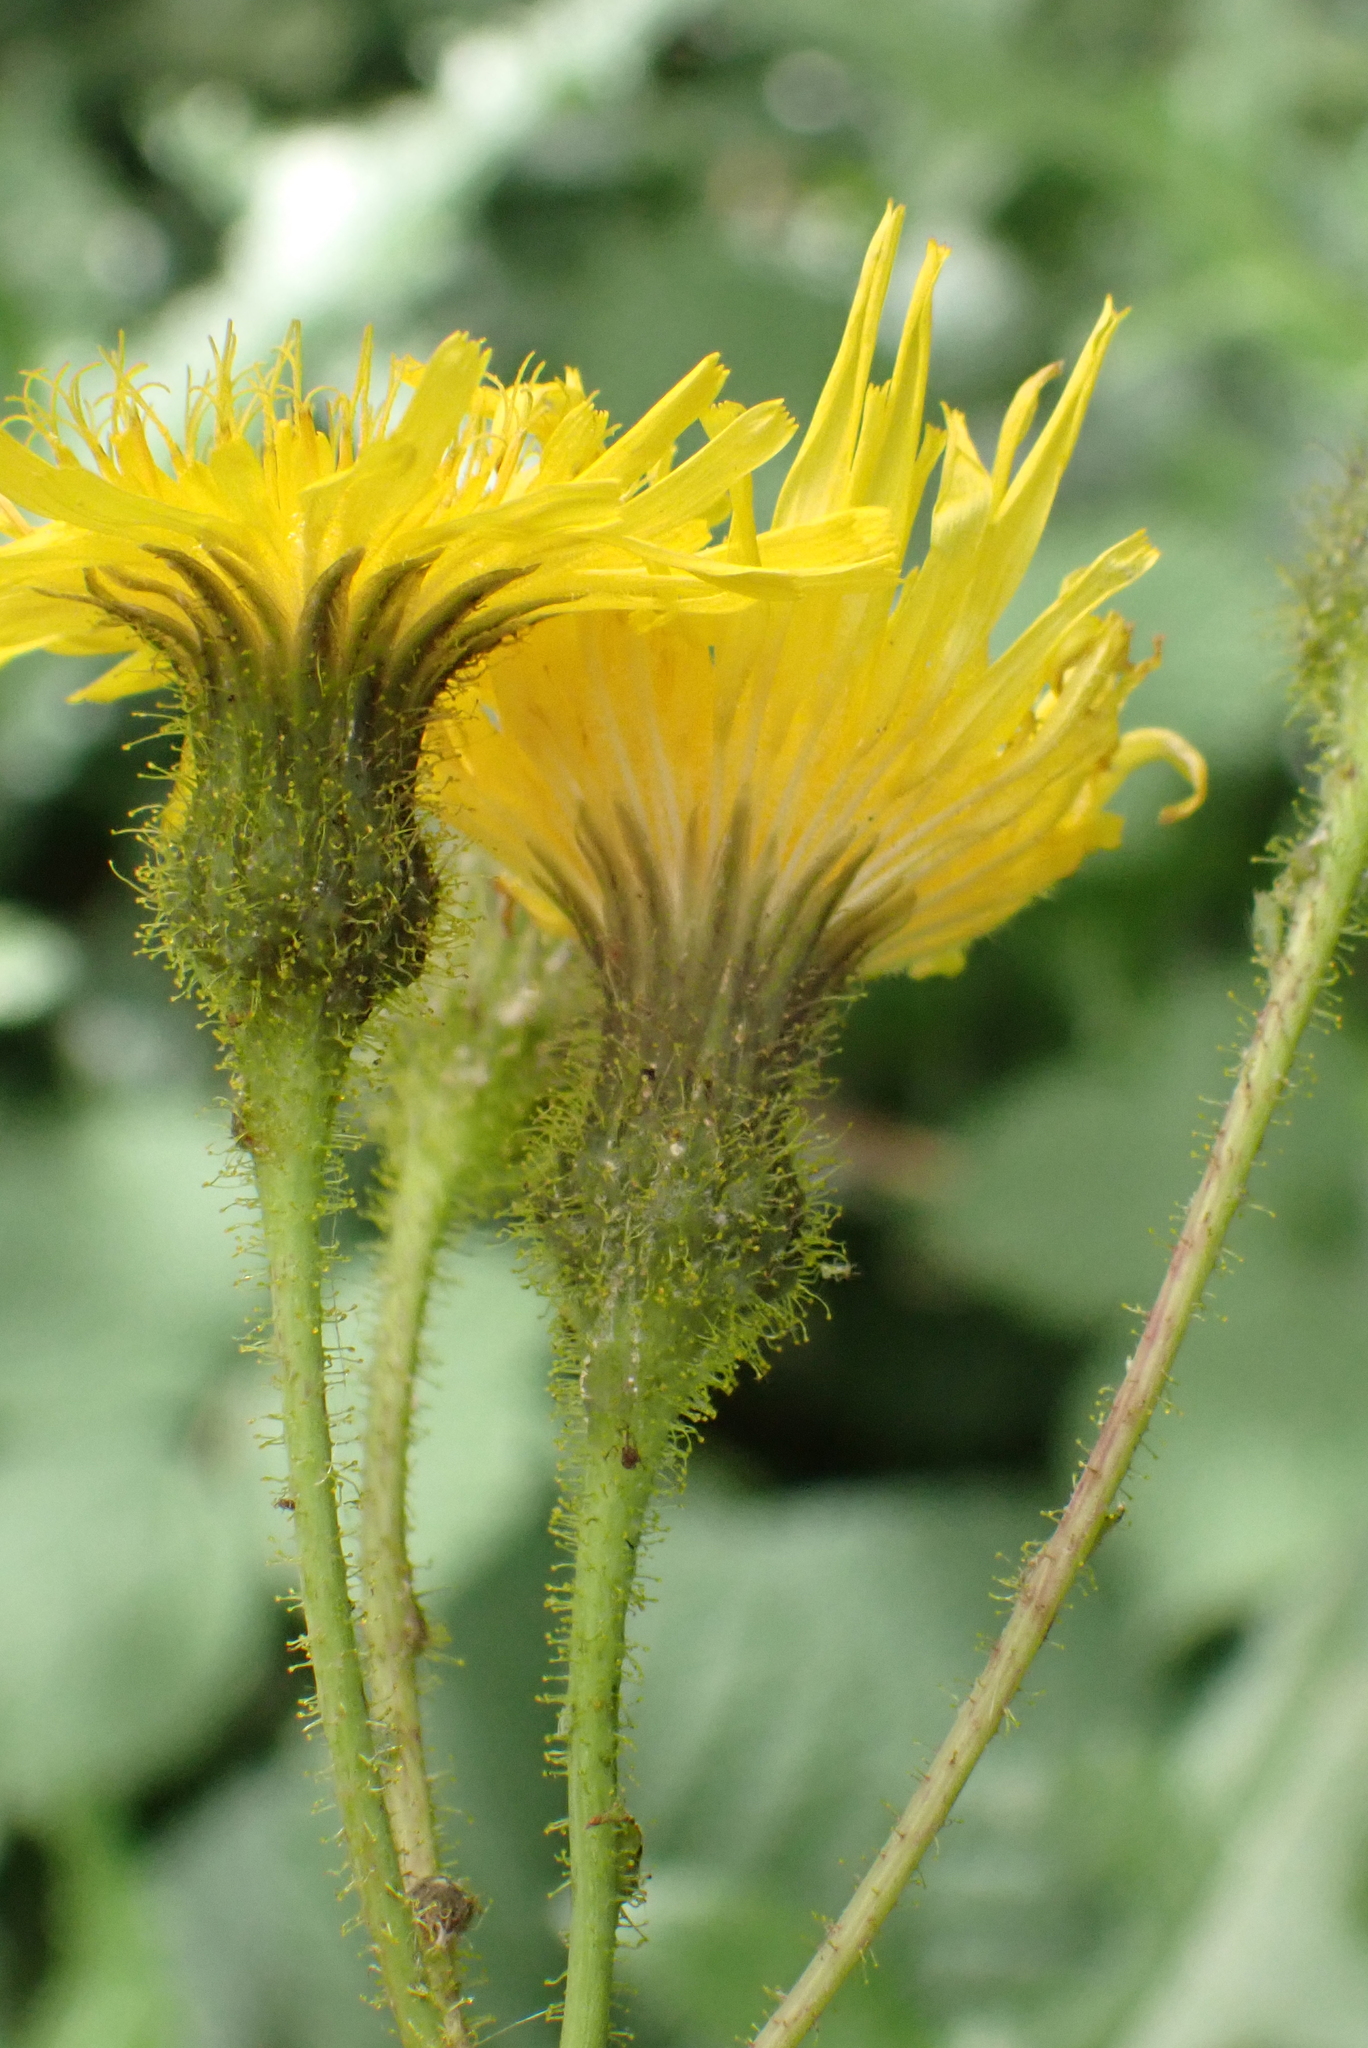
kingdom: Plantae
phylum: Tracheophyta
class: Magnoliopsida
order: Asterales
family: Asteraceae
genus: Sonchus
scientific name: Sonchus arvensis
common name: Perennial sow-thistle
